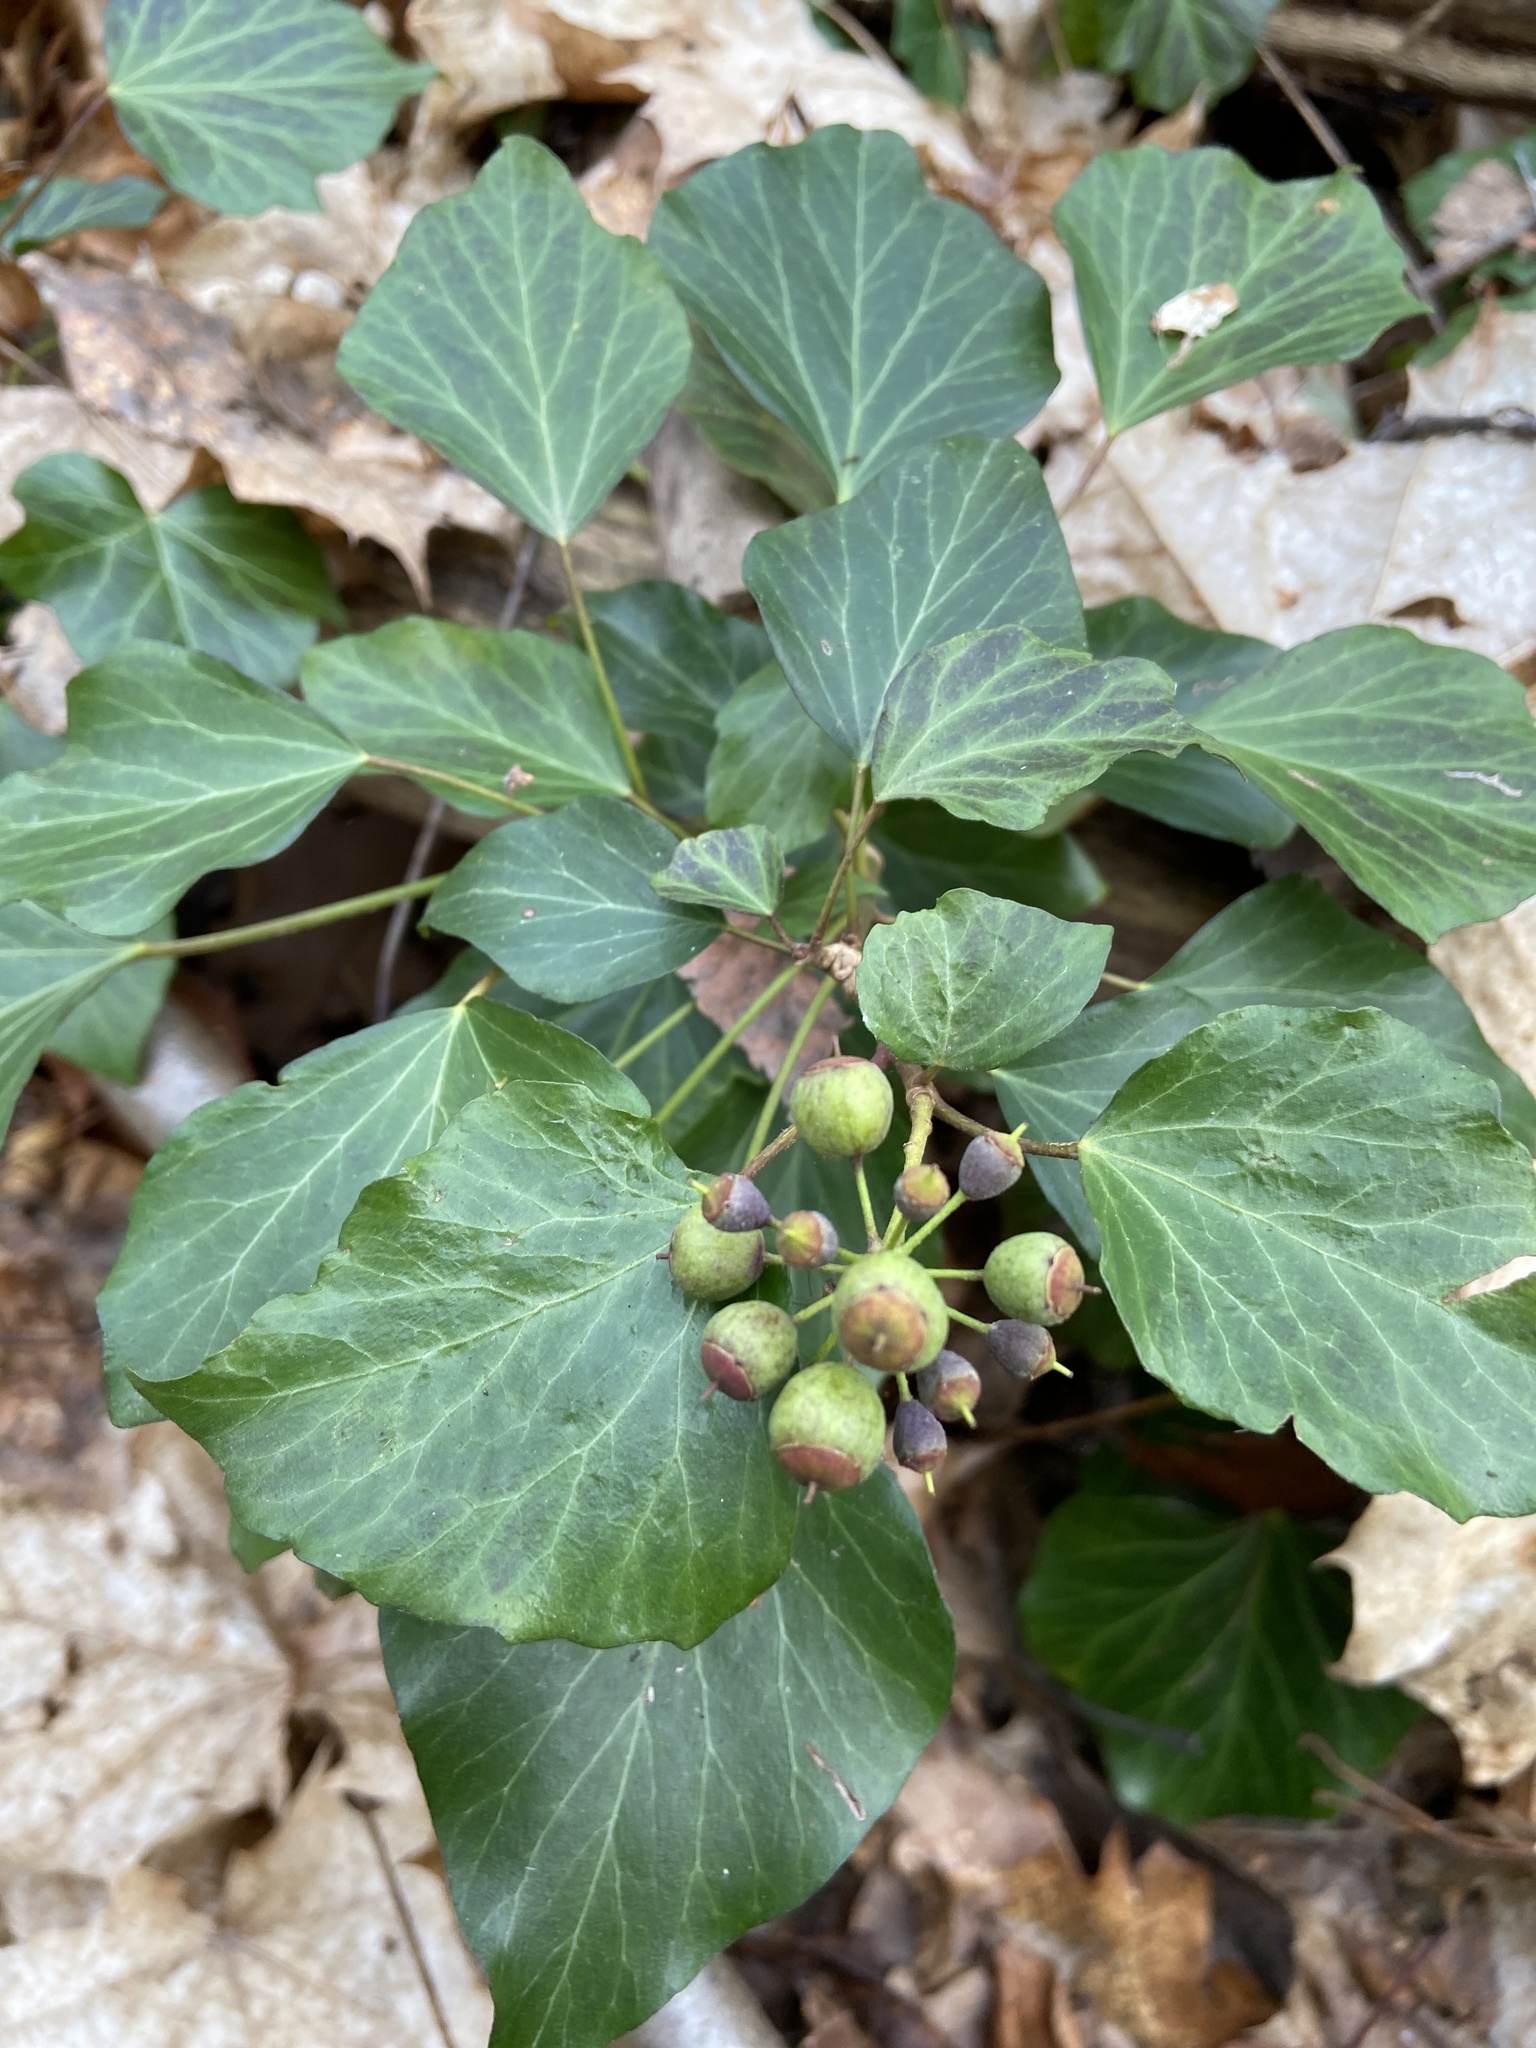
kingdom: Plantae
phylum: Tracheophyta
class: Magnoliopsida
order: Apiales
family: Araliaceae
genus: Hedera
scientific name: Hedera helix
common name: Ivy
